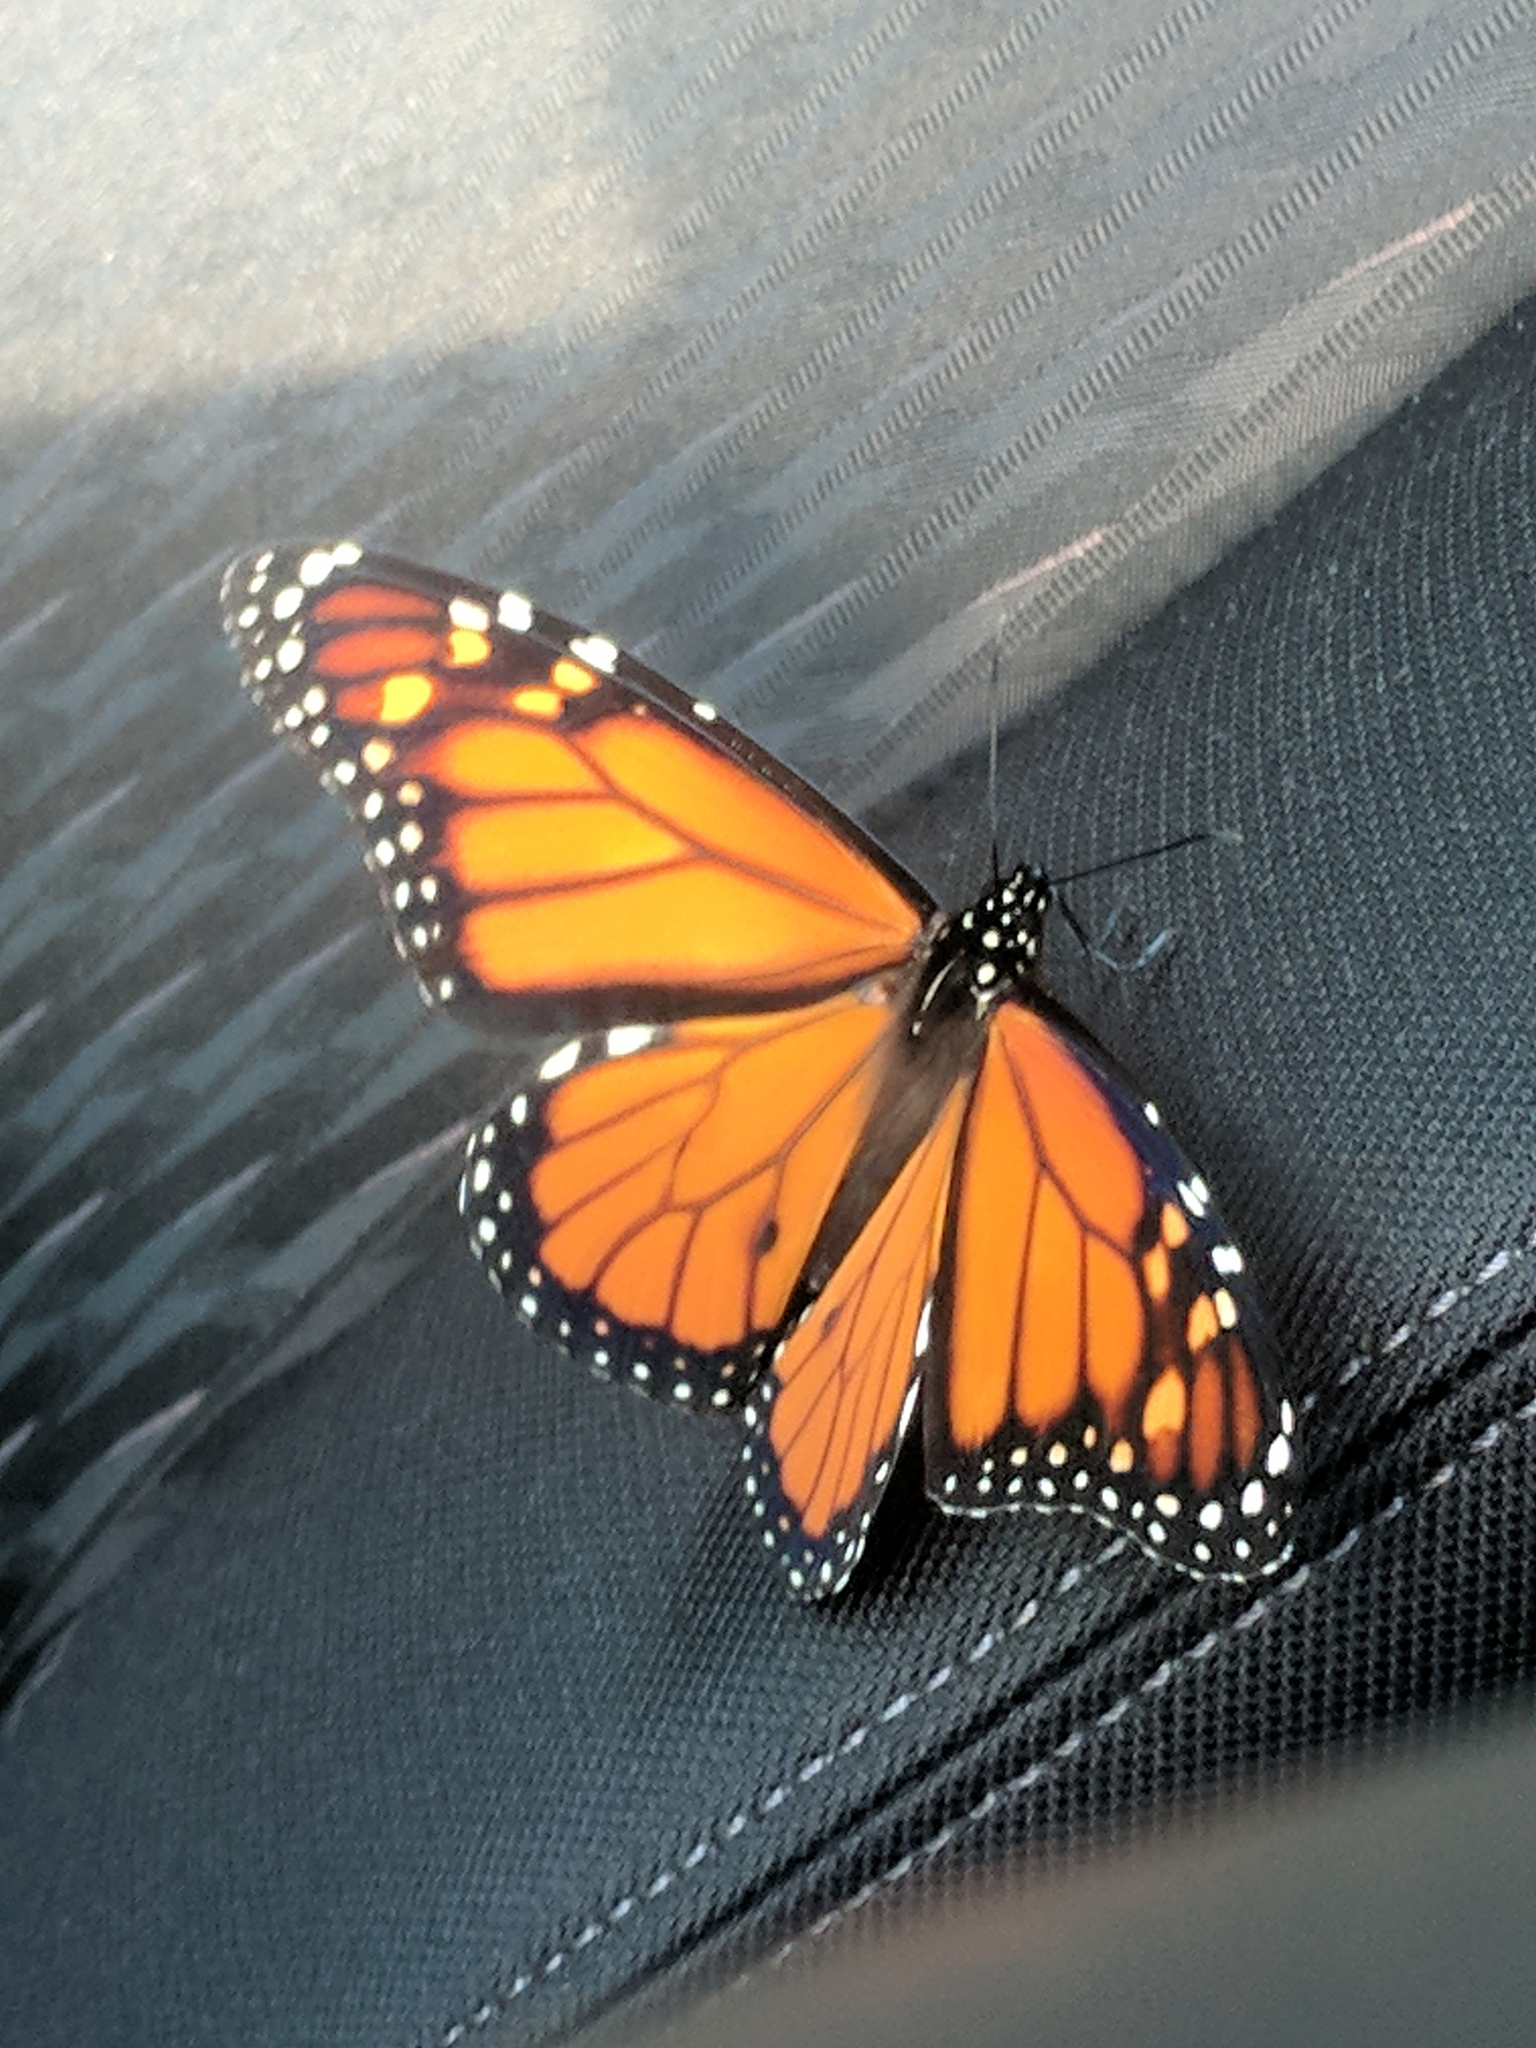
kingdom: Animalia
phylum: Arthropoda
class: Insecta
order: Lepidoptera
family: Nymphalidae
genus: Danaus
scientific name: Danaus plexippus
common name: Monarch
